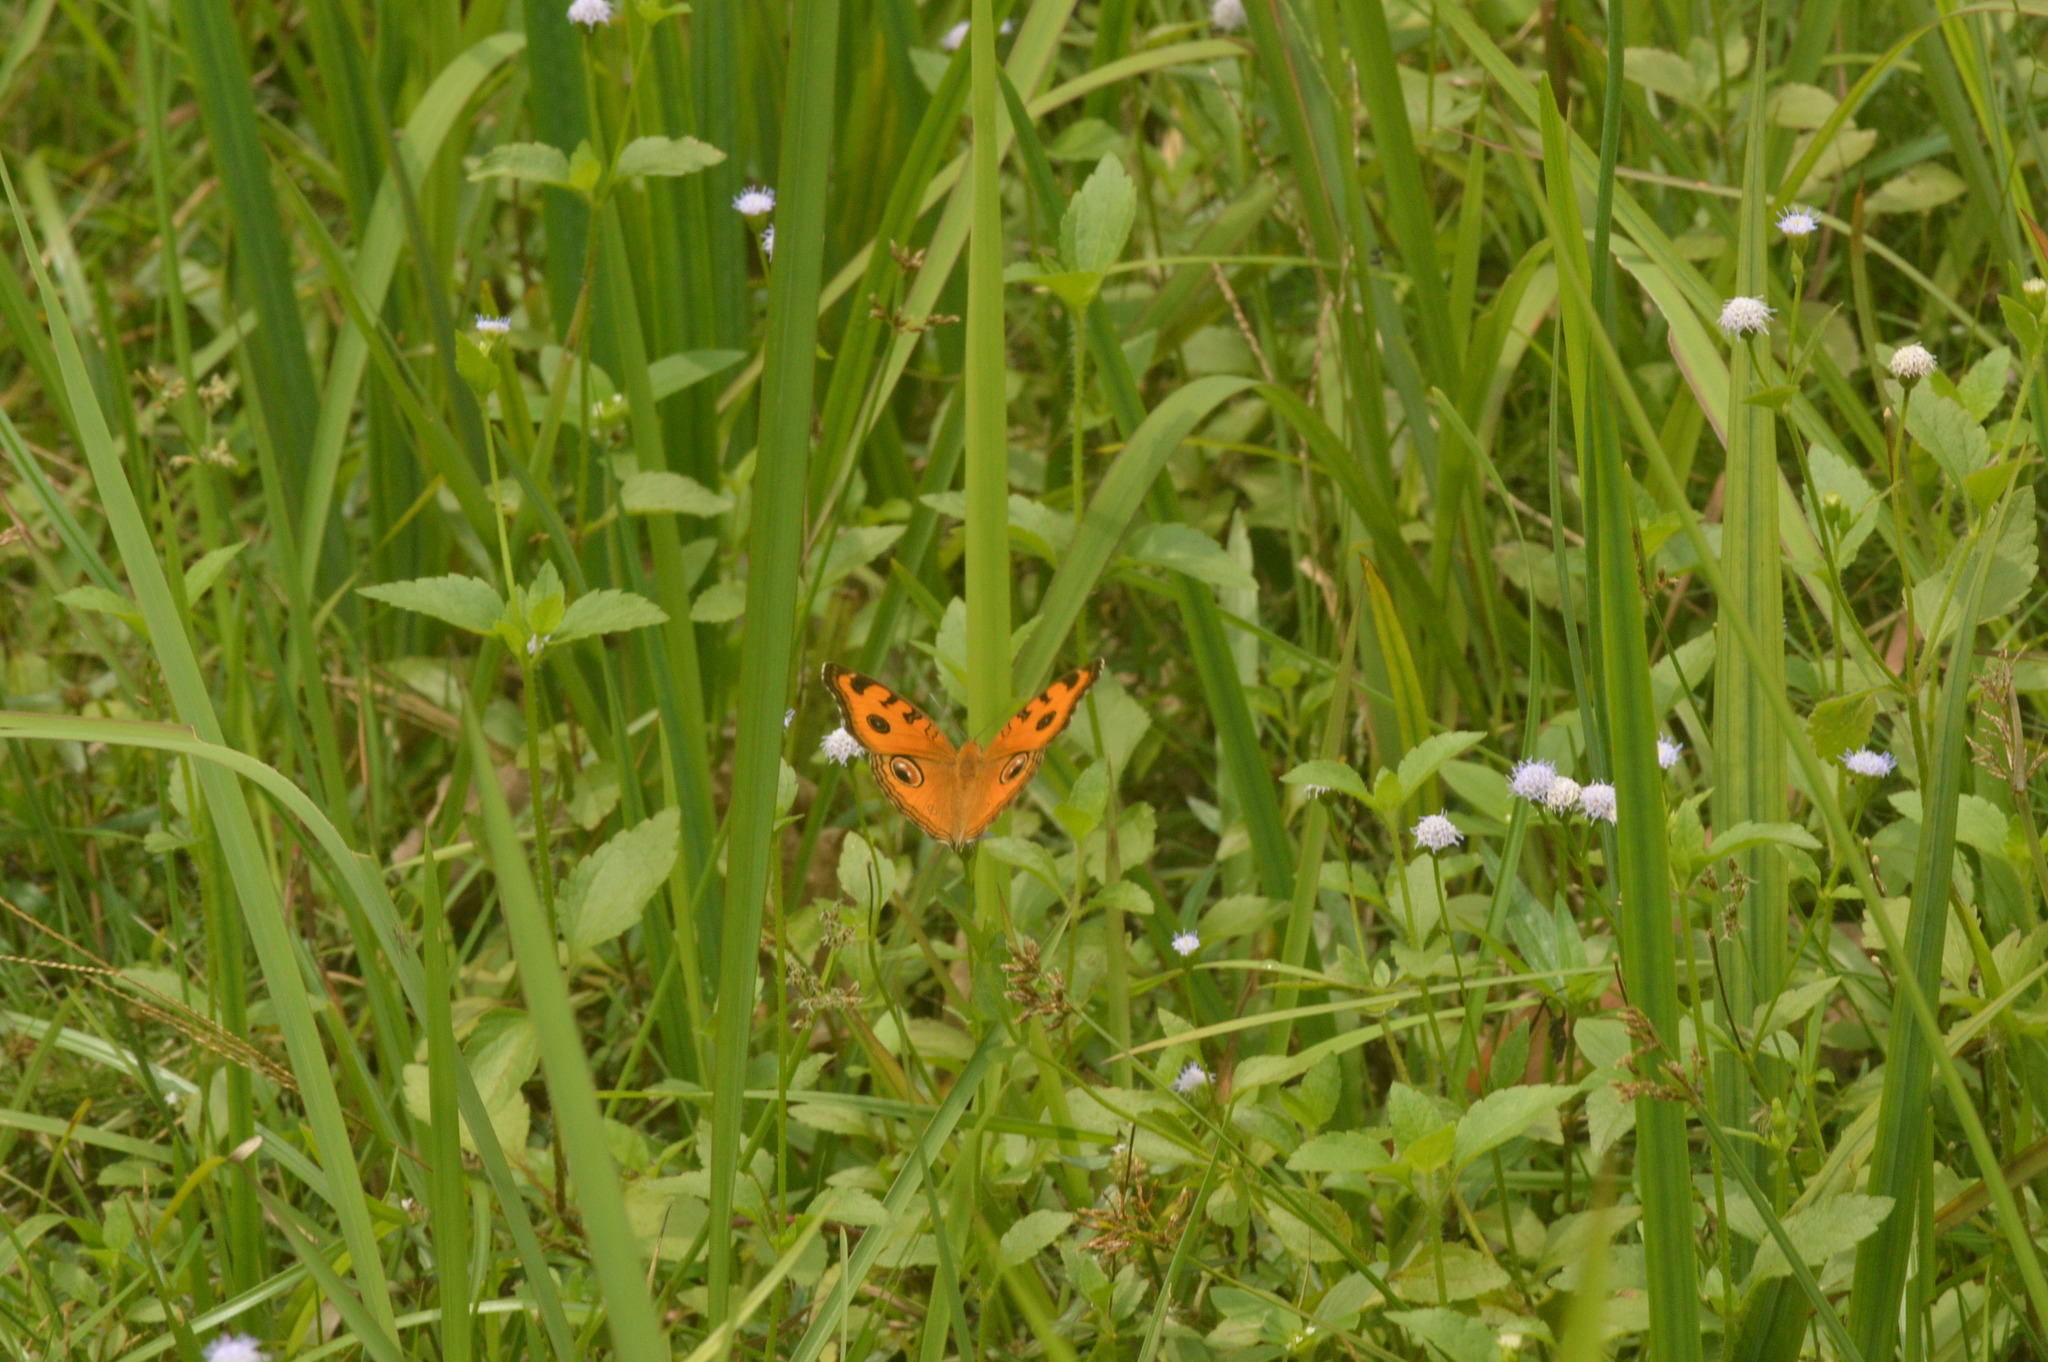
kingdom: Animalia
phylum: Arthropoda
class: Insecta
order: Lepidoptera
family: Nymphalidae
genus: Junonia
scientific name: Junonia almana
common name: Peacock pansy
